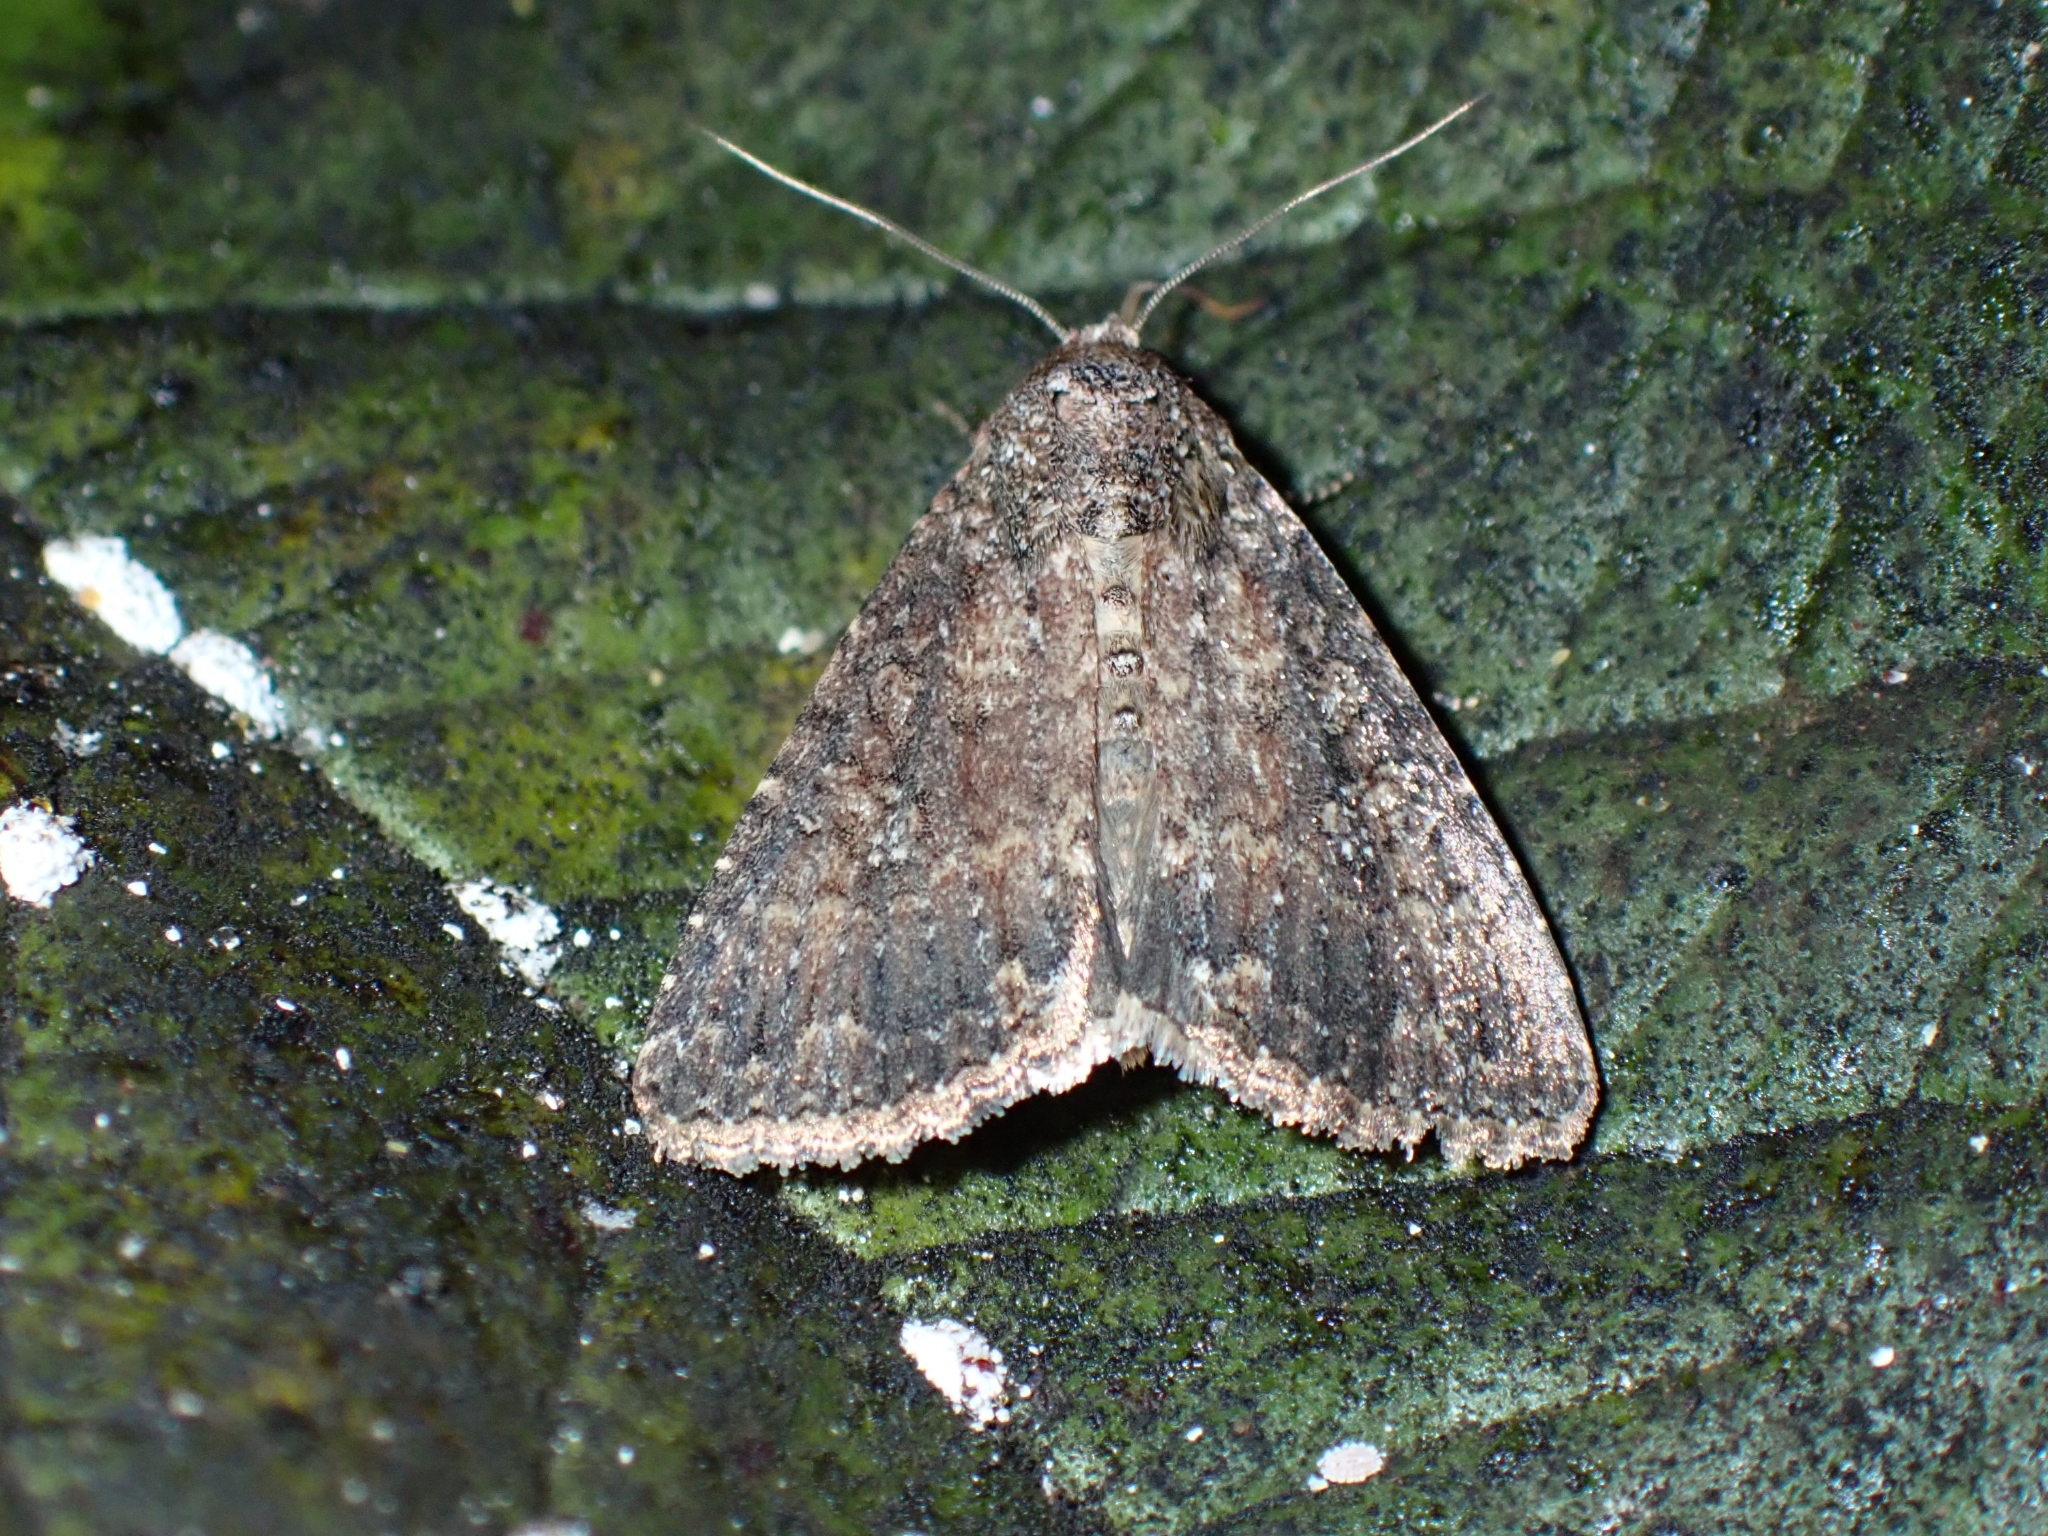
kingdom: Animalia
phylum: Arthropoda
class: Insecta
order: Lepidoptera
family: Noctuidae
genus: Condica
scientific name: Condica capensis
